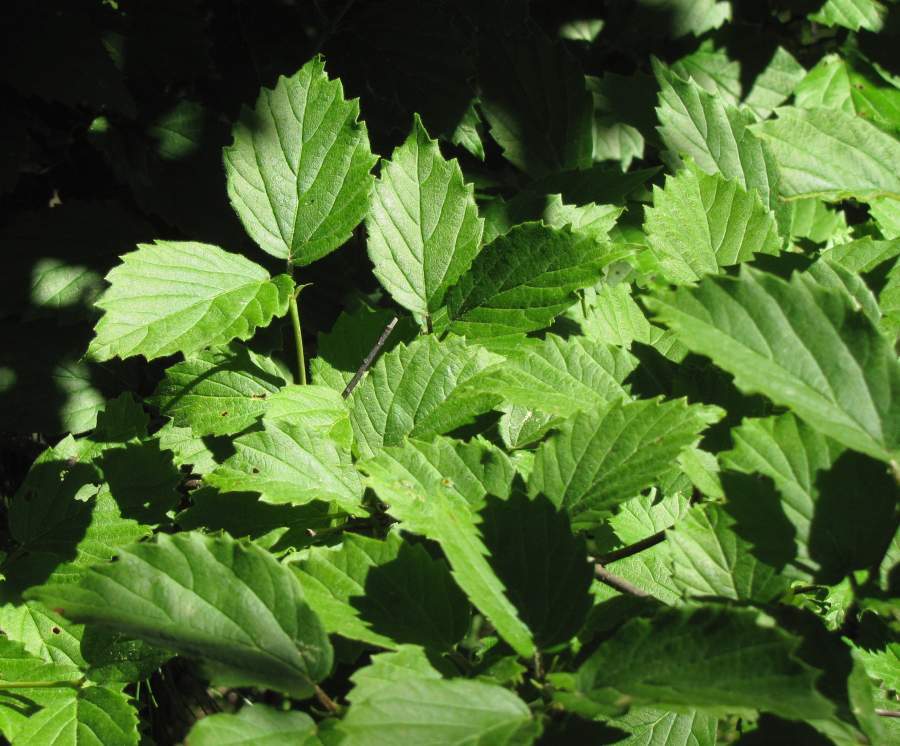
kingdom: Plantae
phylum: Tracheophyta
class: Magnoliopsida
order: Dipsacales
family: Viburnaceae
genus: Viburnum
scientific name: Viburnum rafinesqueanum
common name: Downy arrow-wood
